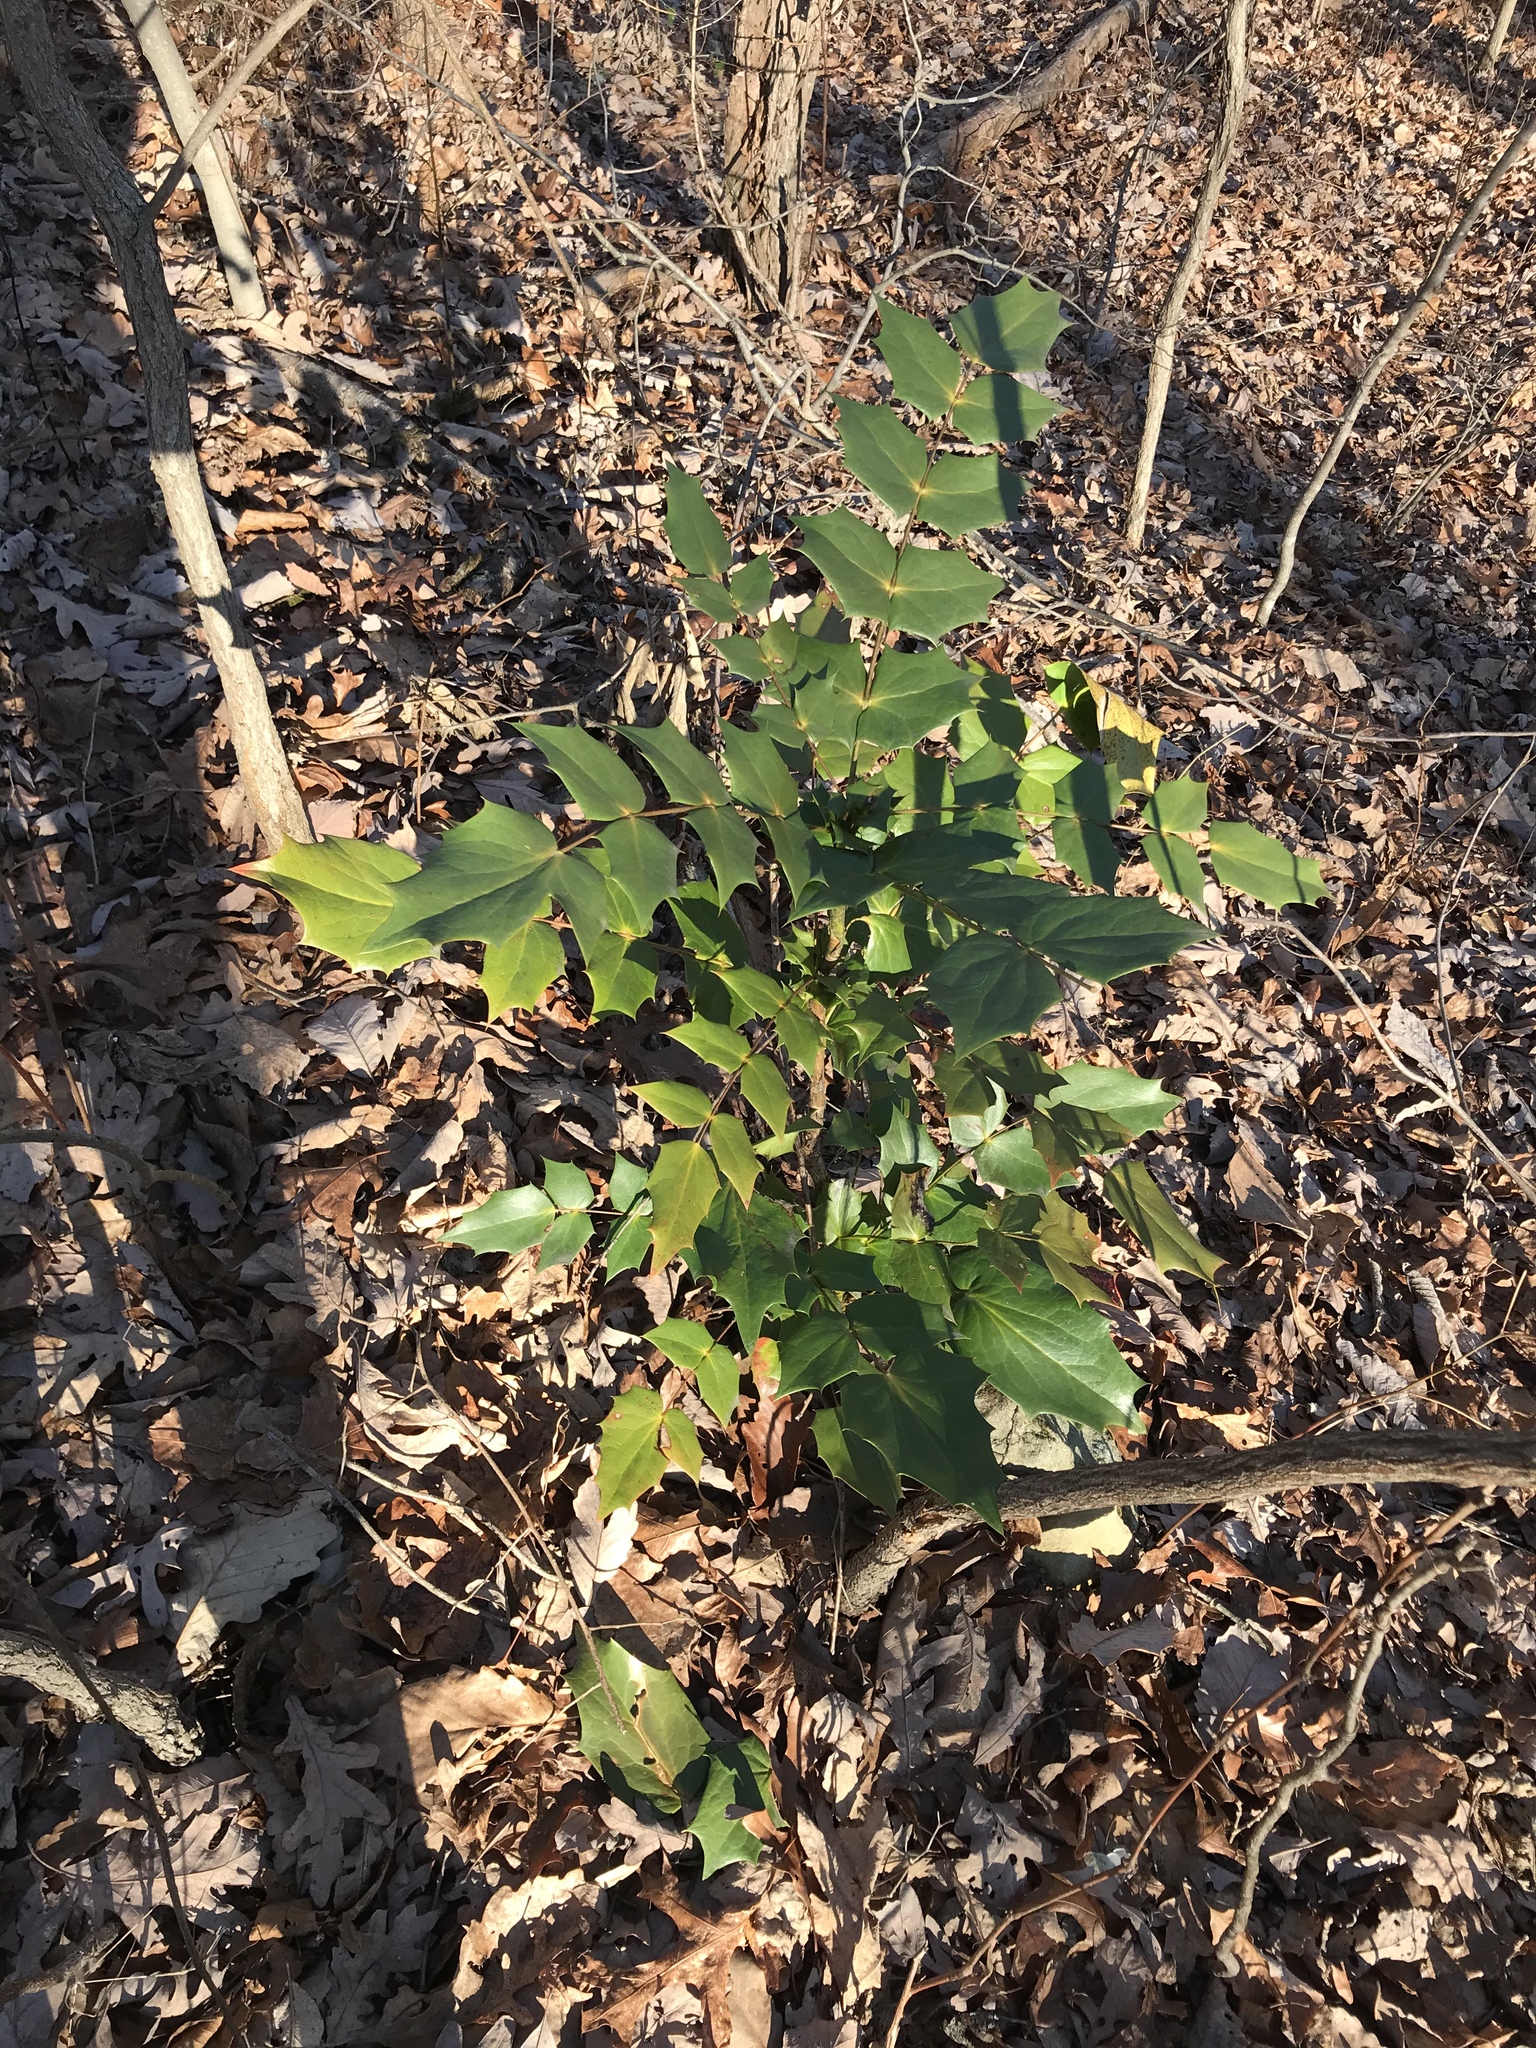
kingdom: Plantae
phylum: Tracheophyta
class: Magnoliopsida
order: Ranunculales
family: Berberidaceae
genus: Mahonia
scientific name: Mahonia bealei
